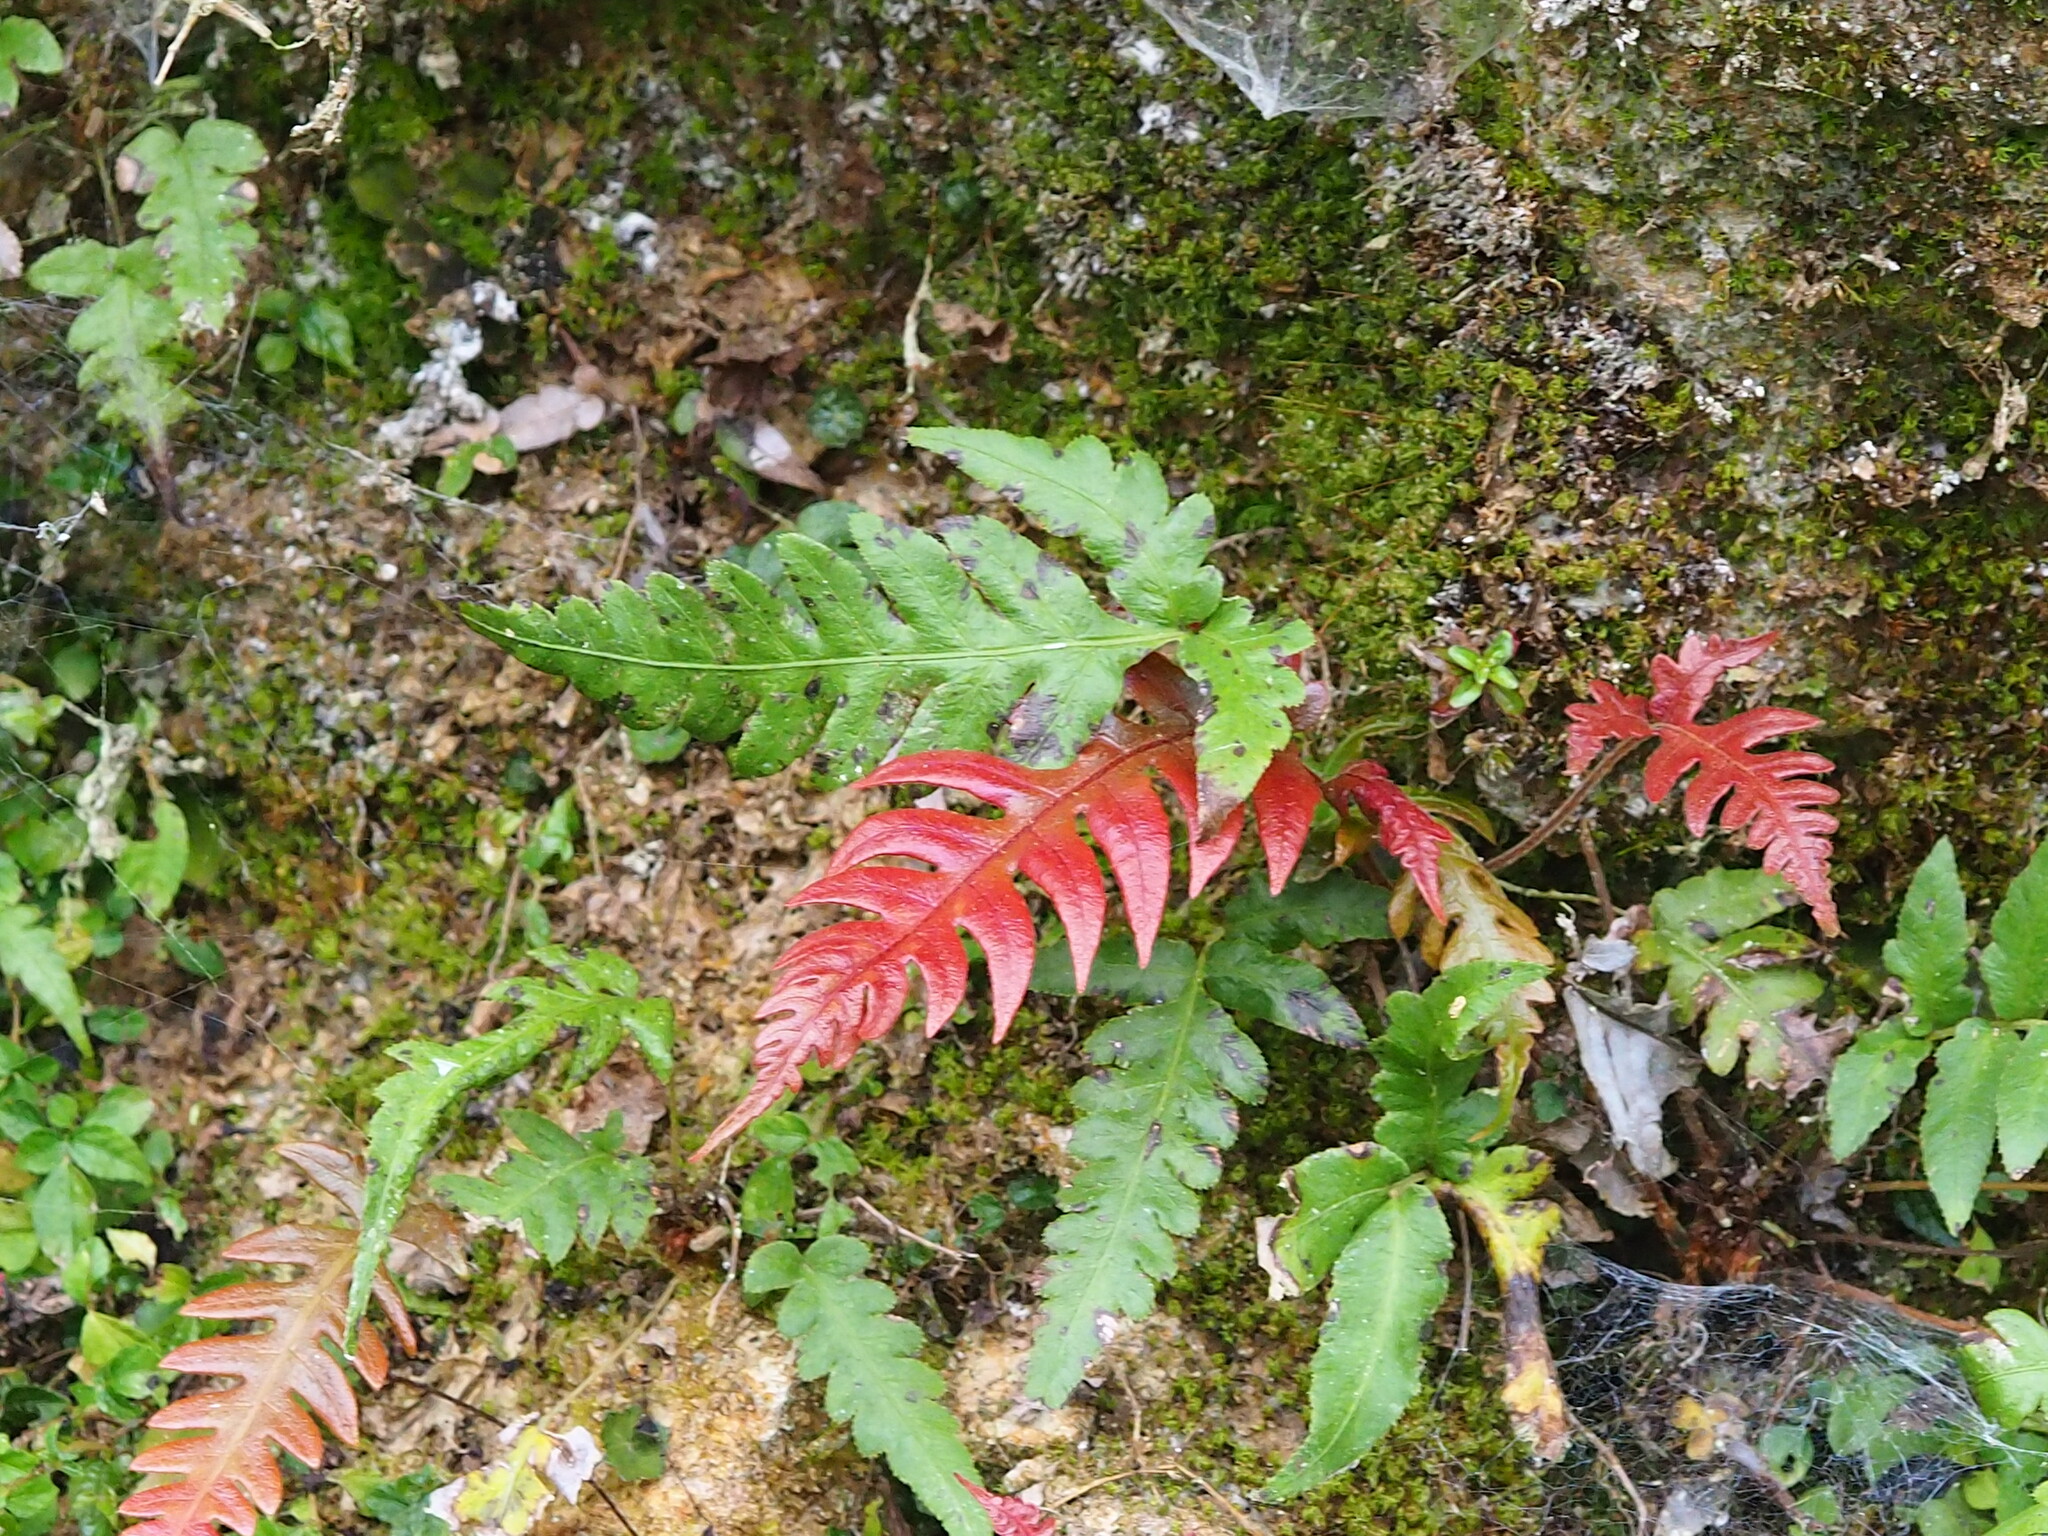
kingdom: Plantae
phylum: Tracheophyta
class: Polypodiopsida
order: Polypodiales
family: Blechnaceae
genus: Woodwardia
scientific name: Woodwardia unigemmata
